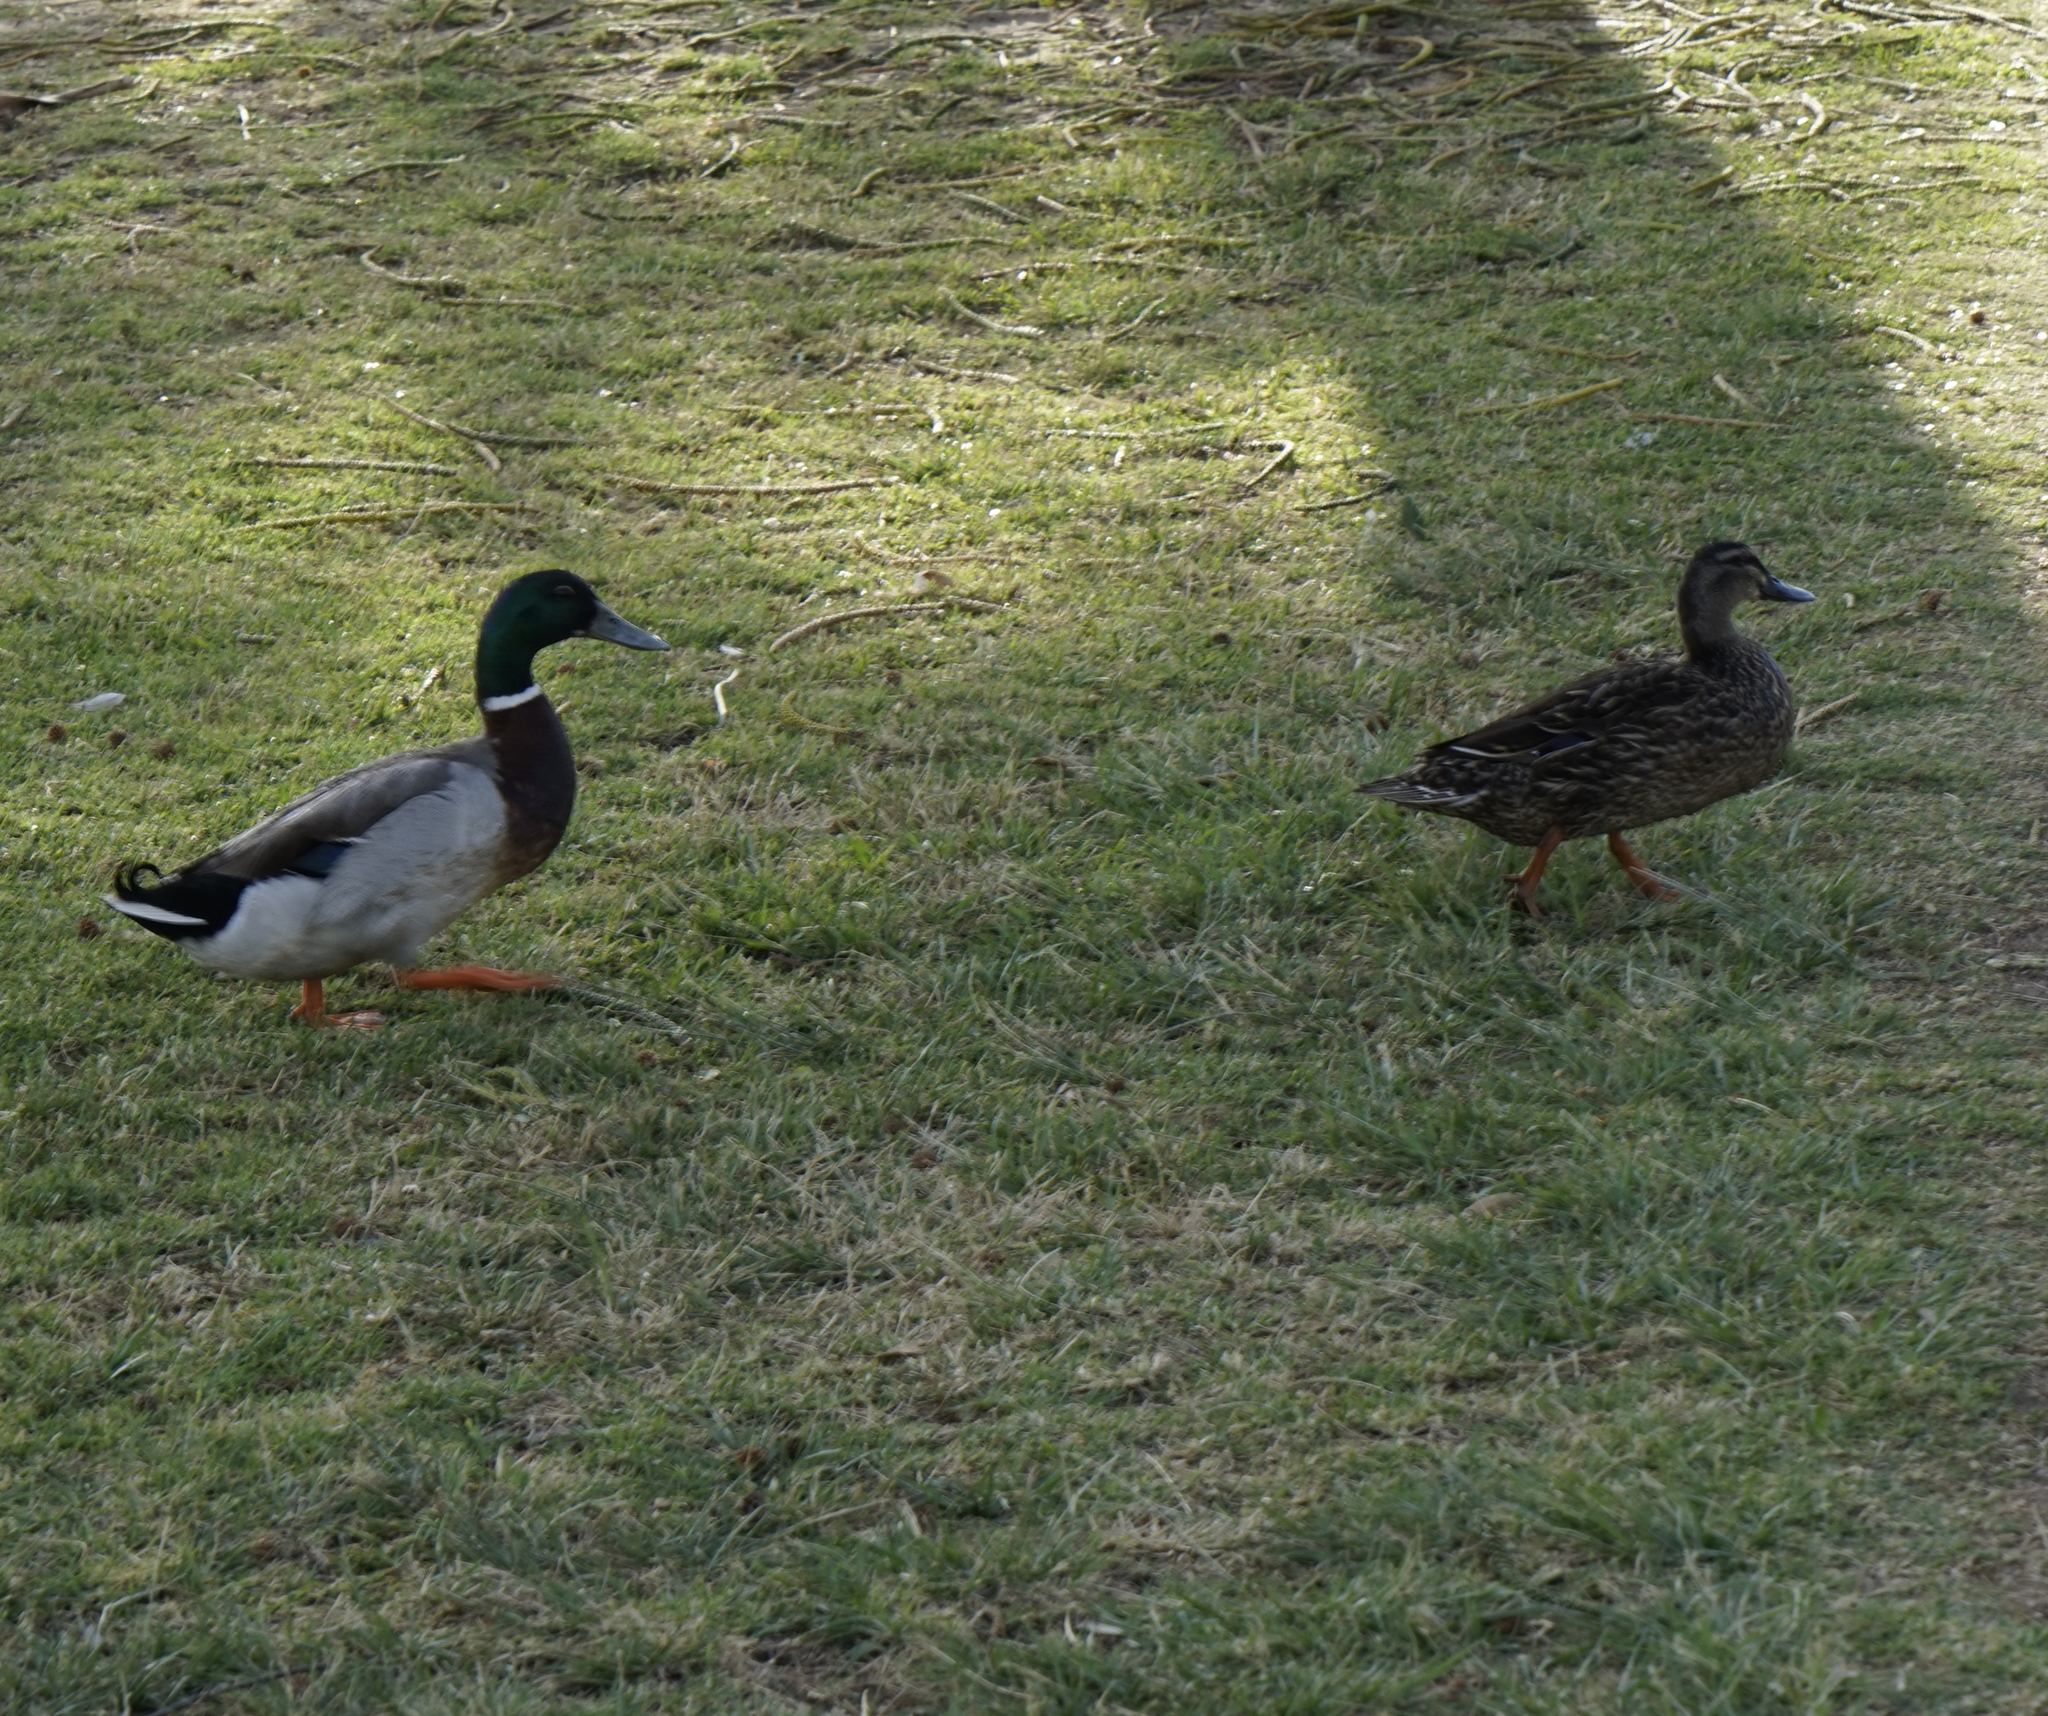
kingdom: Animalia
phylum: Chordata
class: Aves
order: Anseriformes
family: Anatidae
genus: Anas
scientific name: Anas platyrhynchos
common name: Mallard
